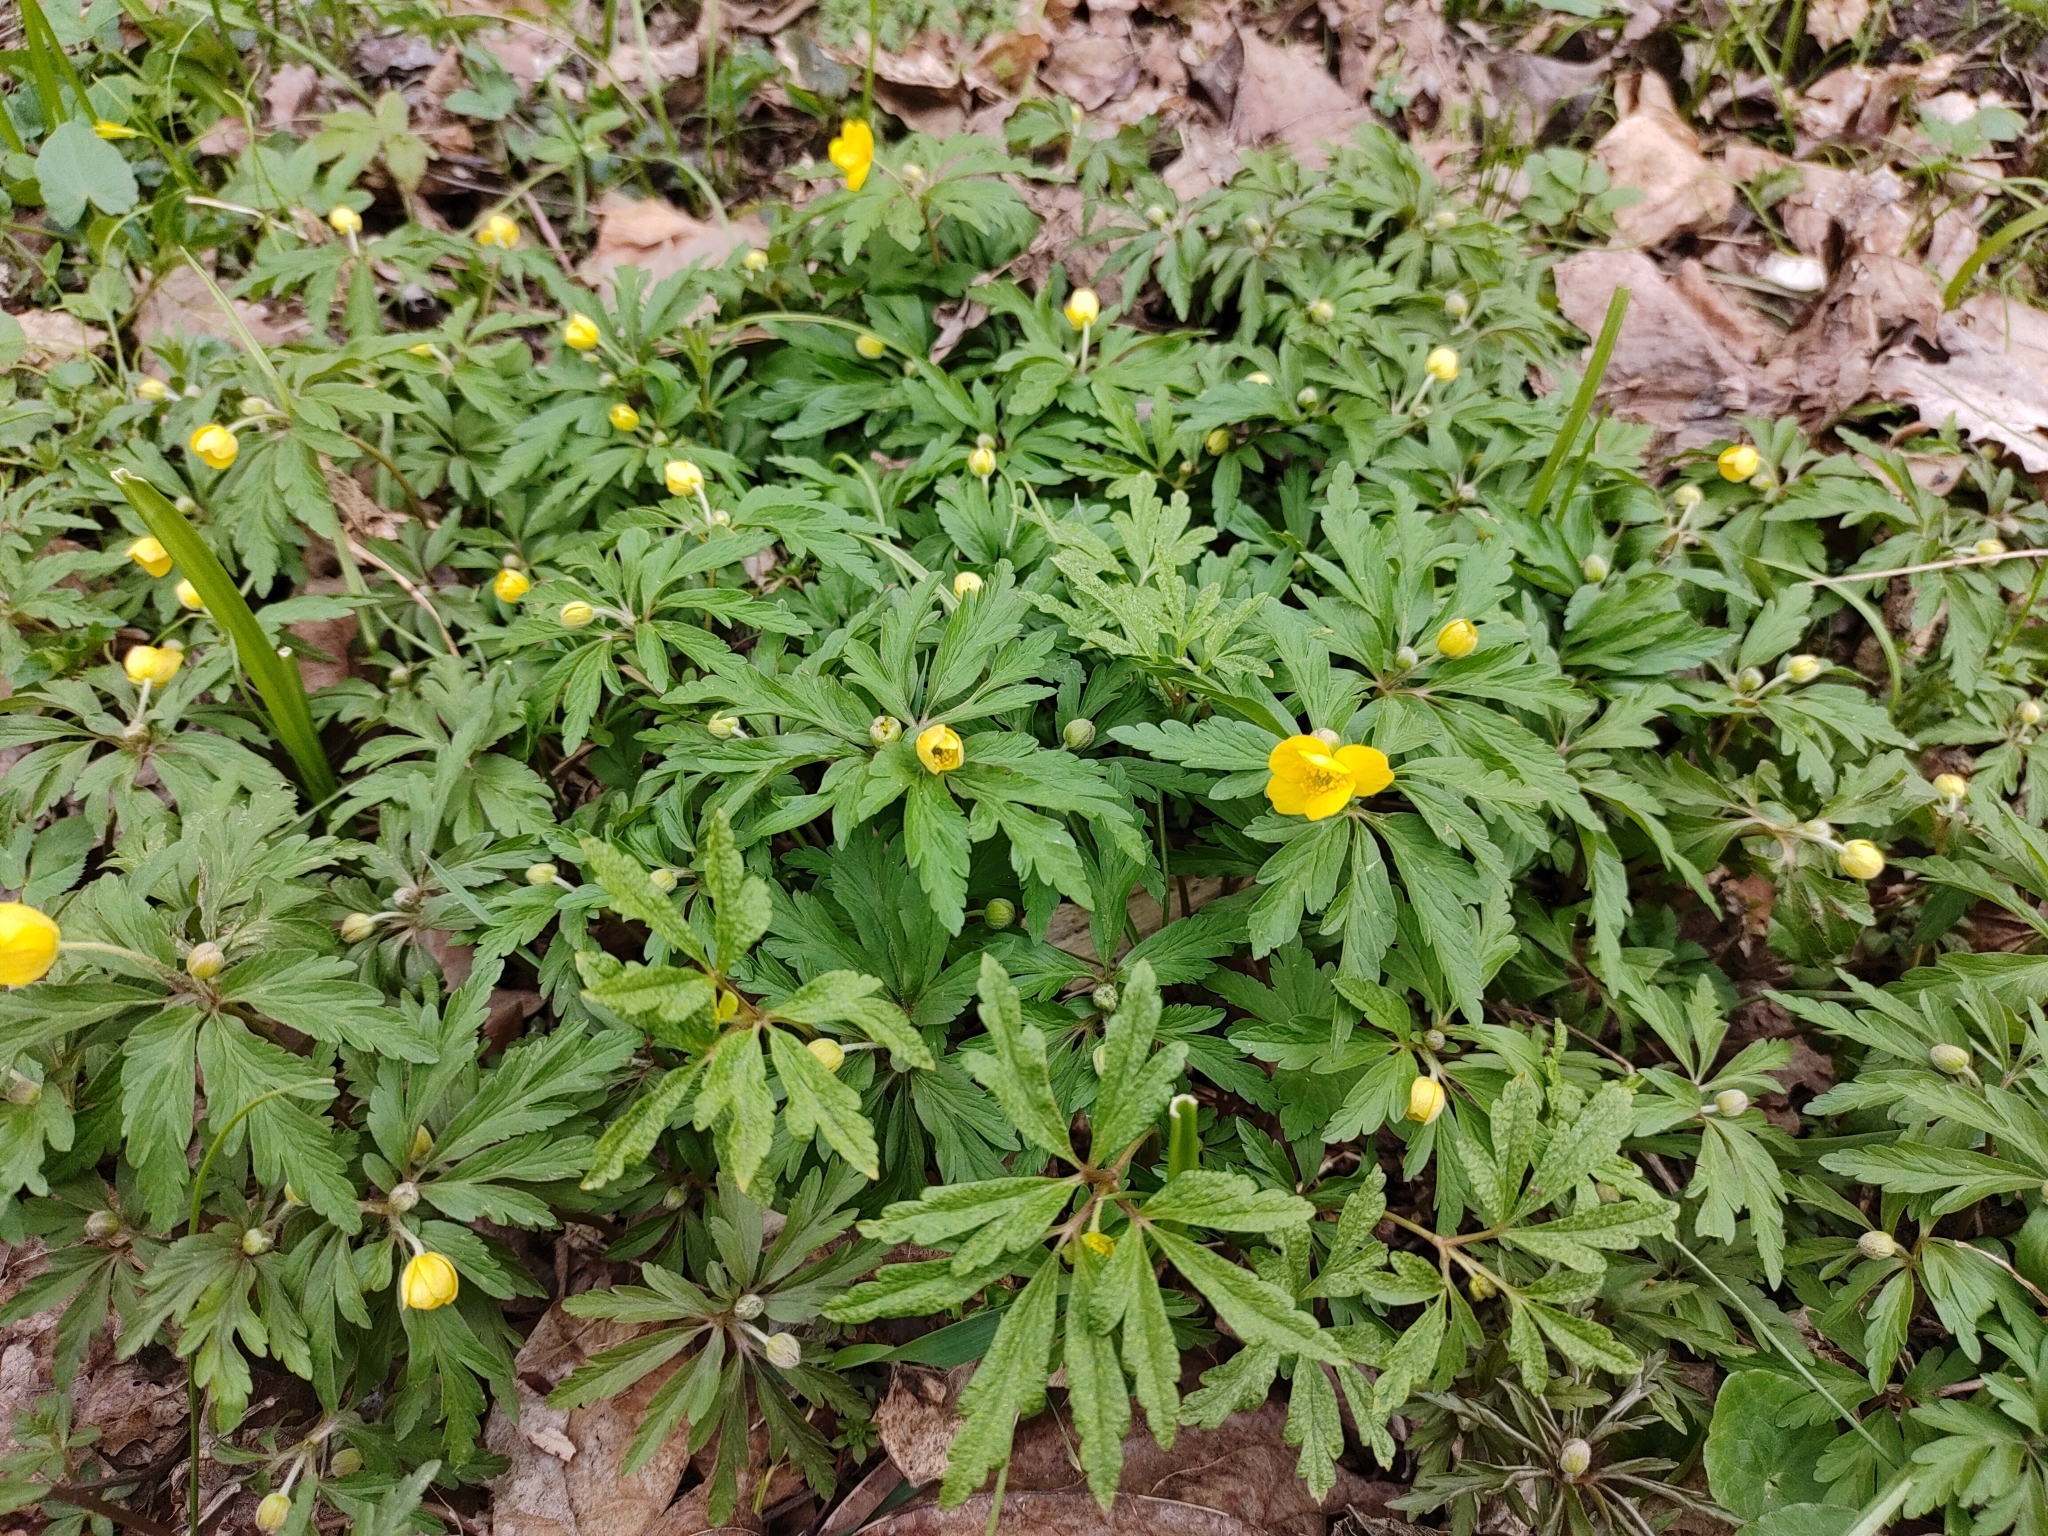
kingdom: Plantae
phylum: Tracheophyta
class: Magnoliopsida
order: Ranunculales
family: Ranunculaceae
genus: Anemone
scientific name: Anemone ranunculoides
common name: Yellow anemone
